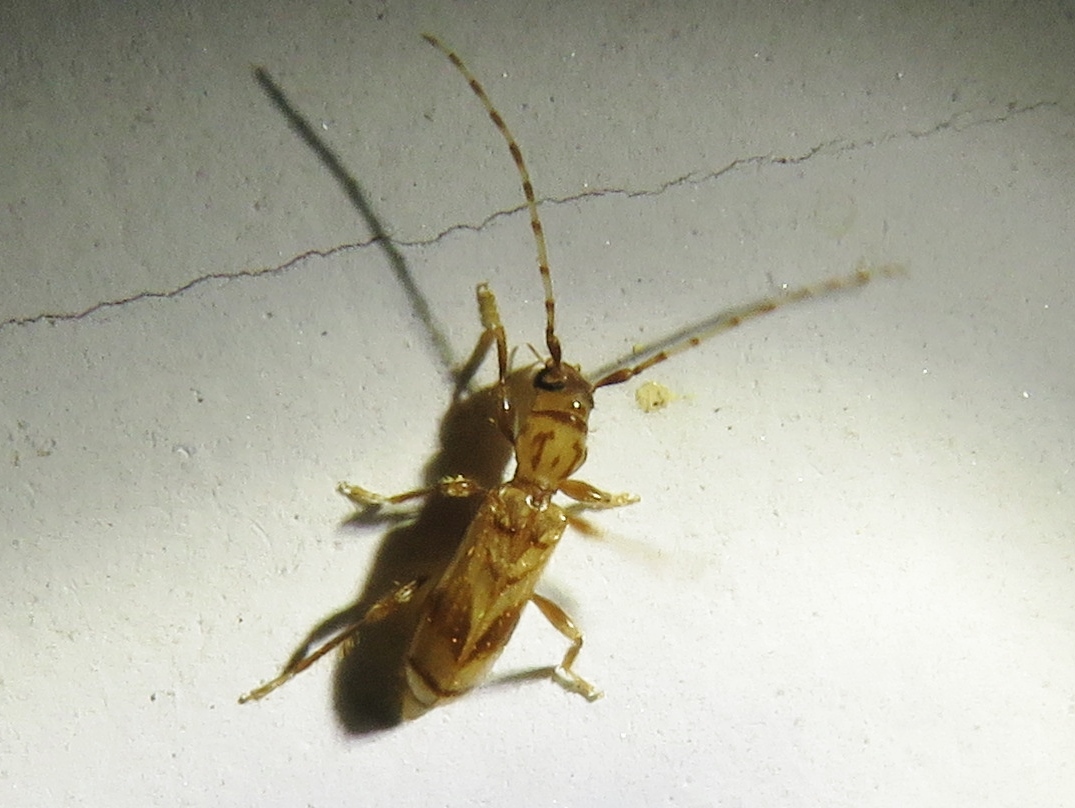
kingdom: Animalia
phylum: Arthropoda
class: Insecta
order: Coleoptera
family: Cerambycidae
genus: Obrium
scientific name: Obrium maculatum
